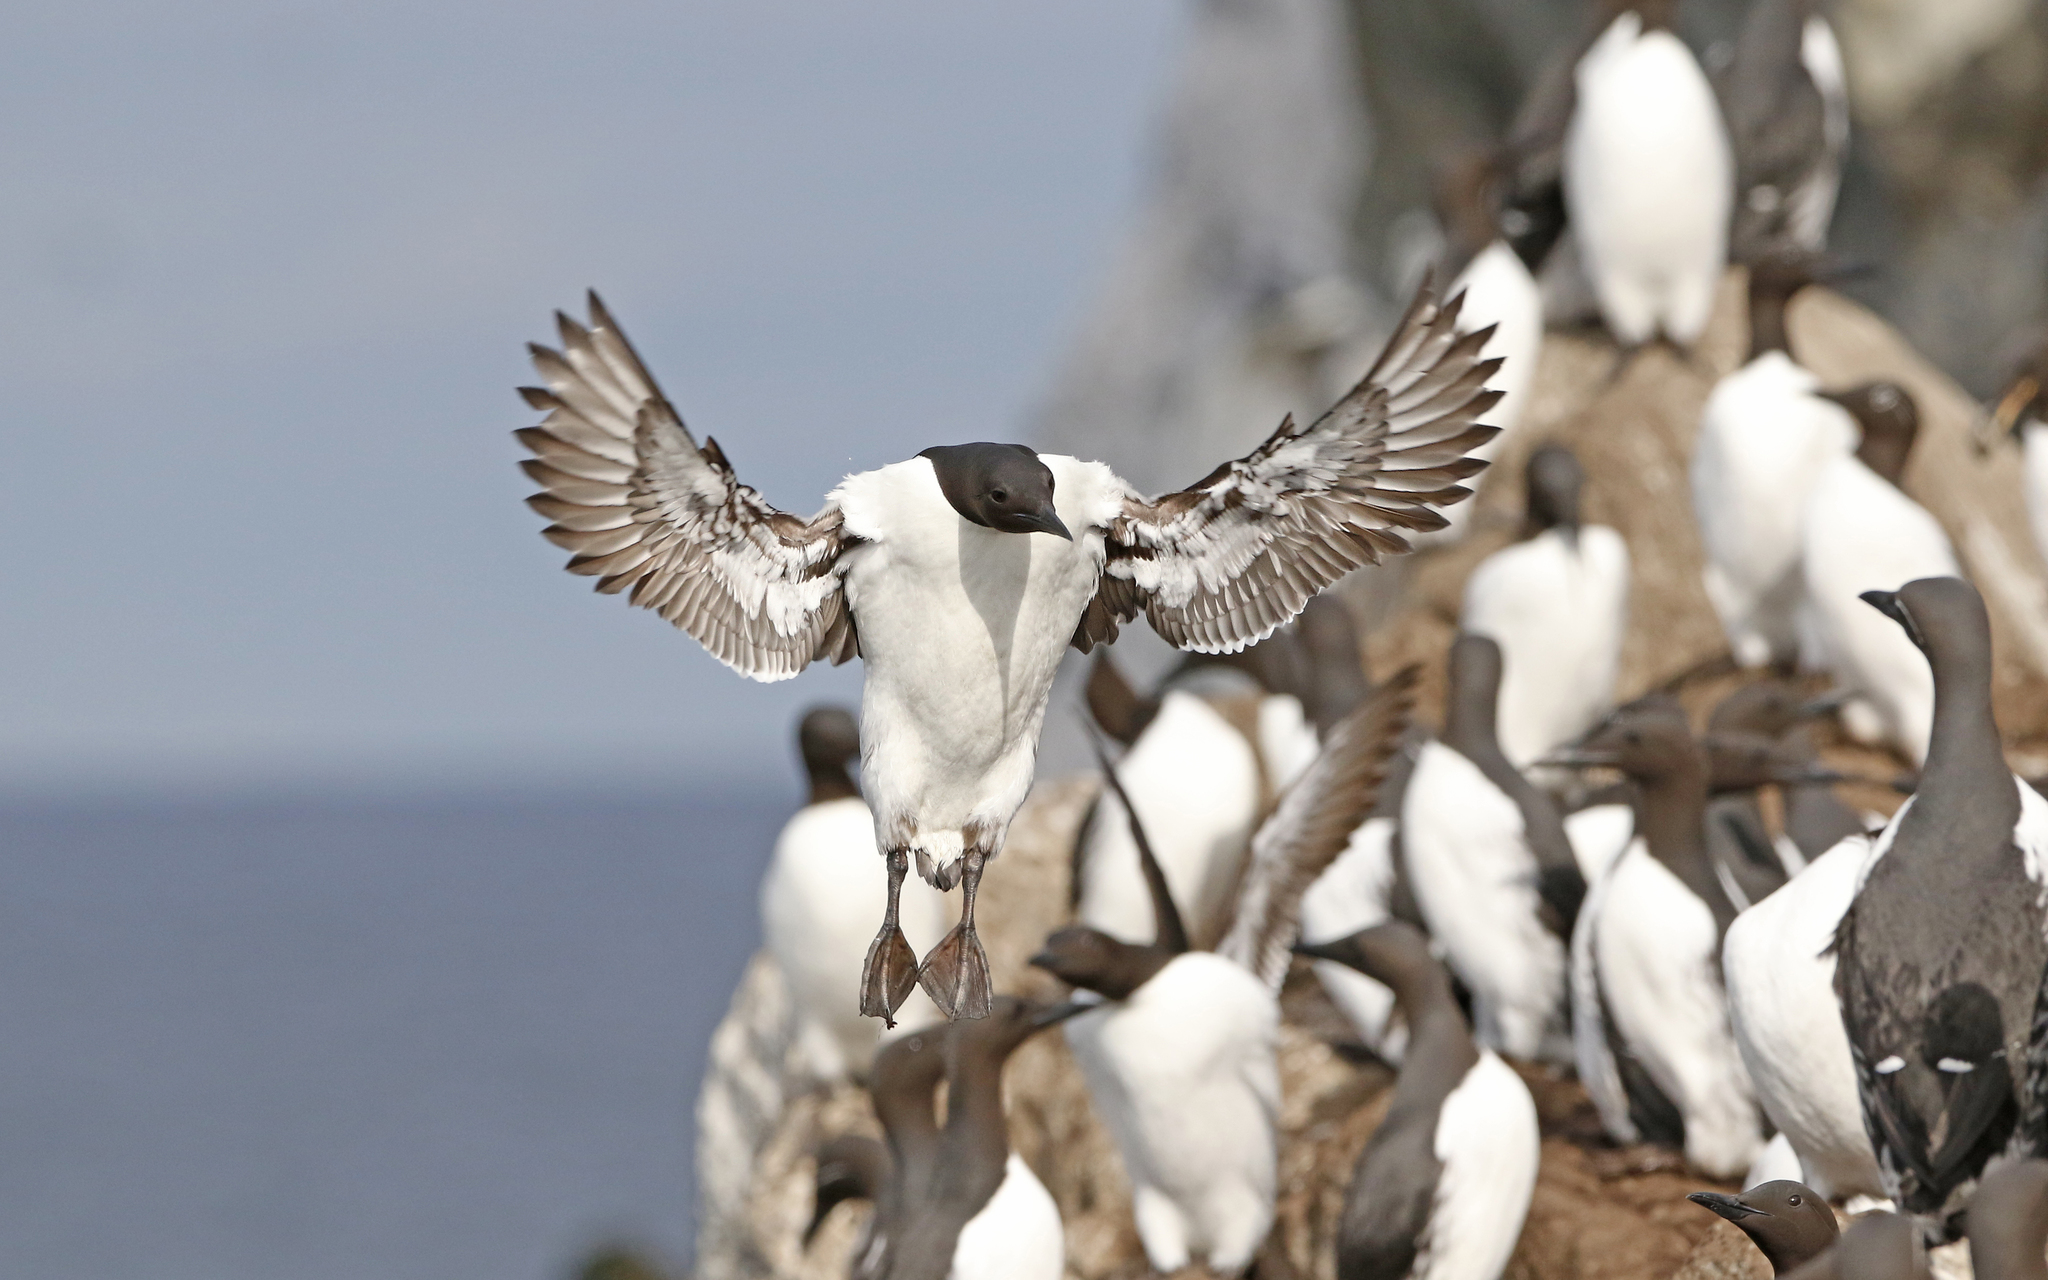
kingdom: Animalia
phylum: Chordata
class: Aves
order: Charadriiformes
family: Alcidae
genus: Uria
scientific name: Uria aalge
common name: Common murre
